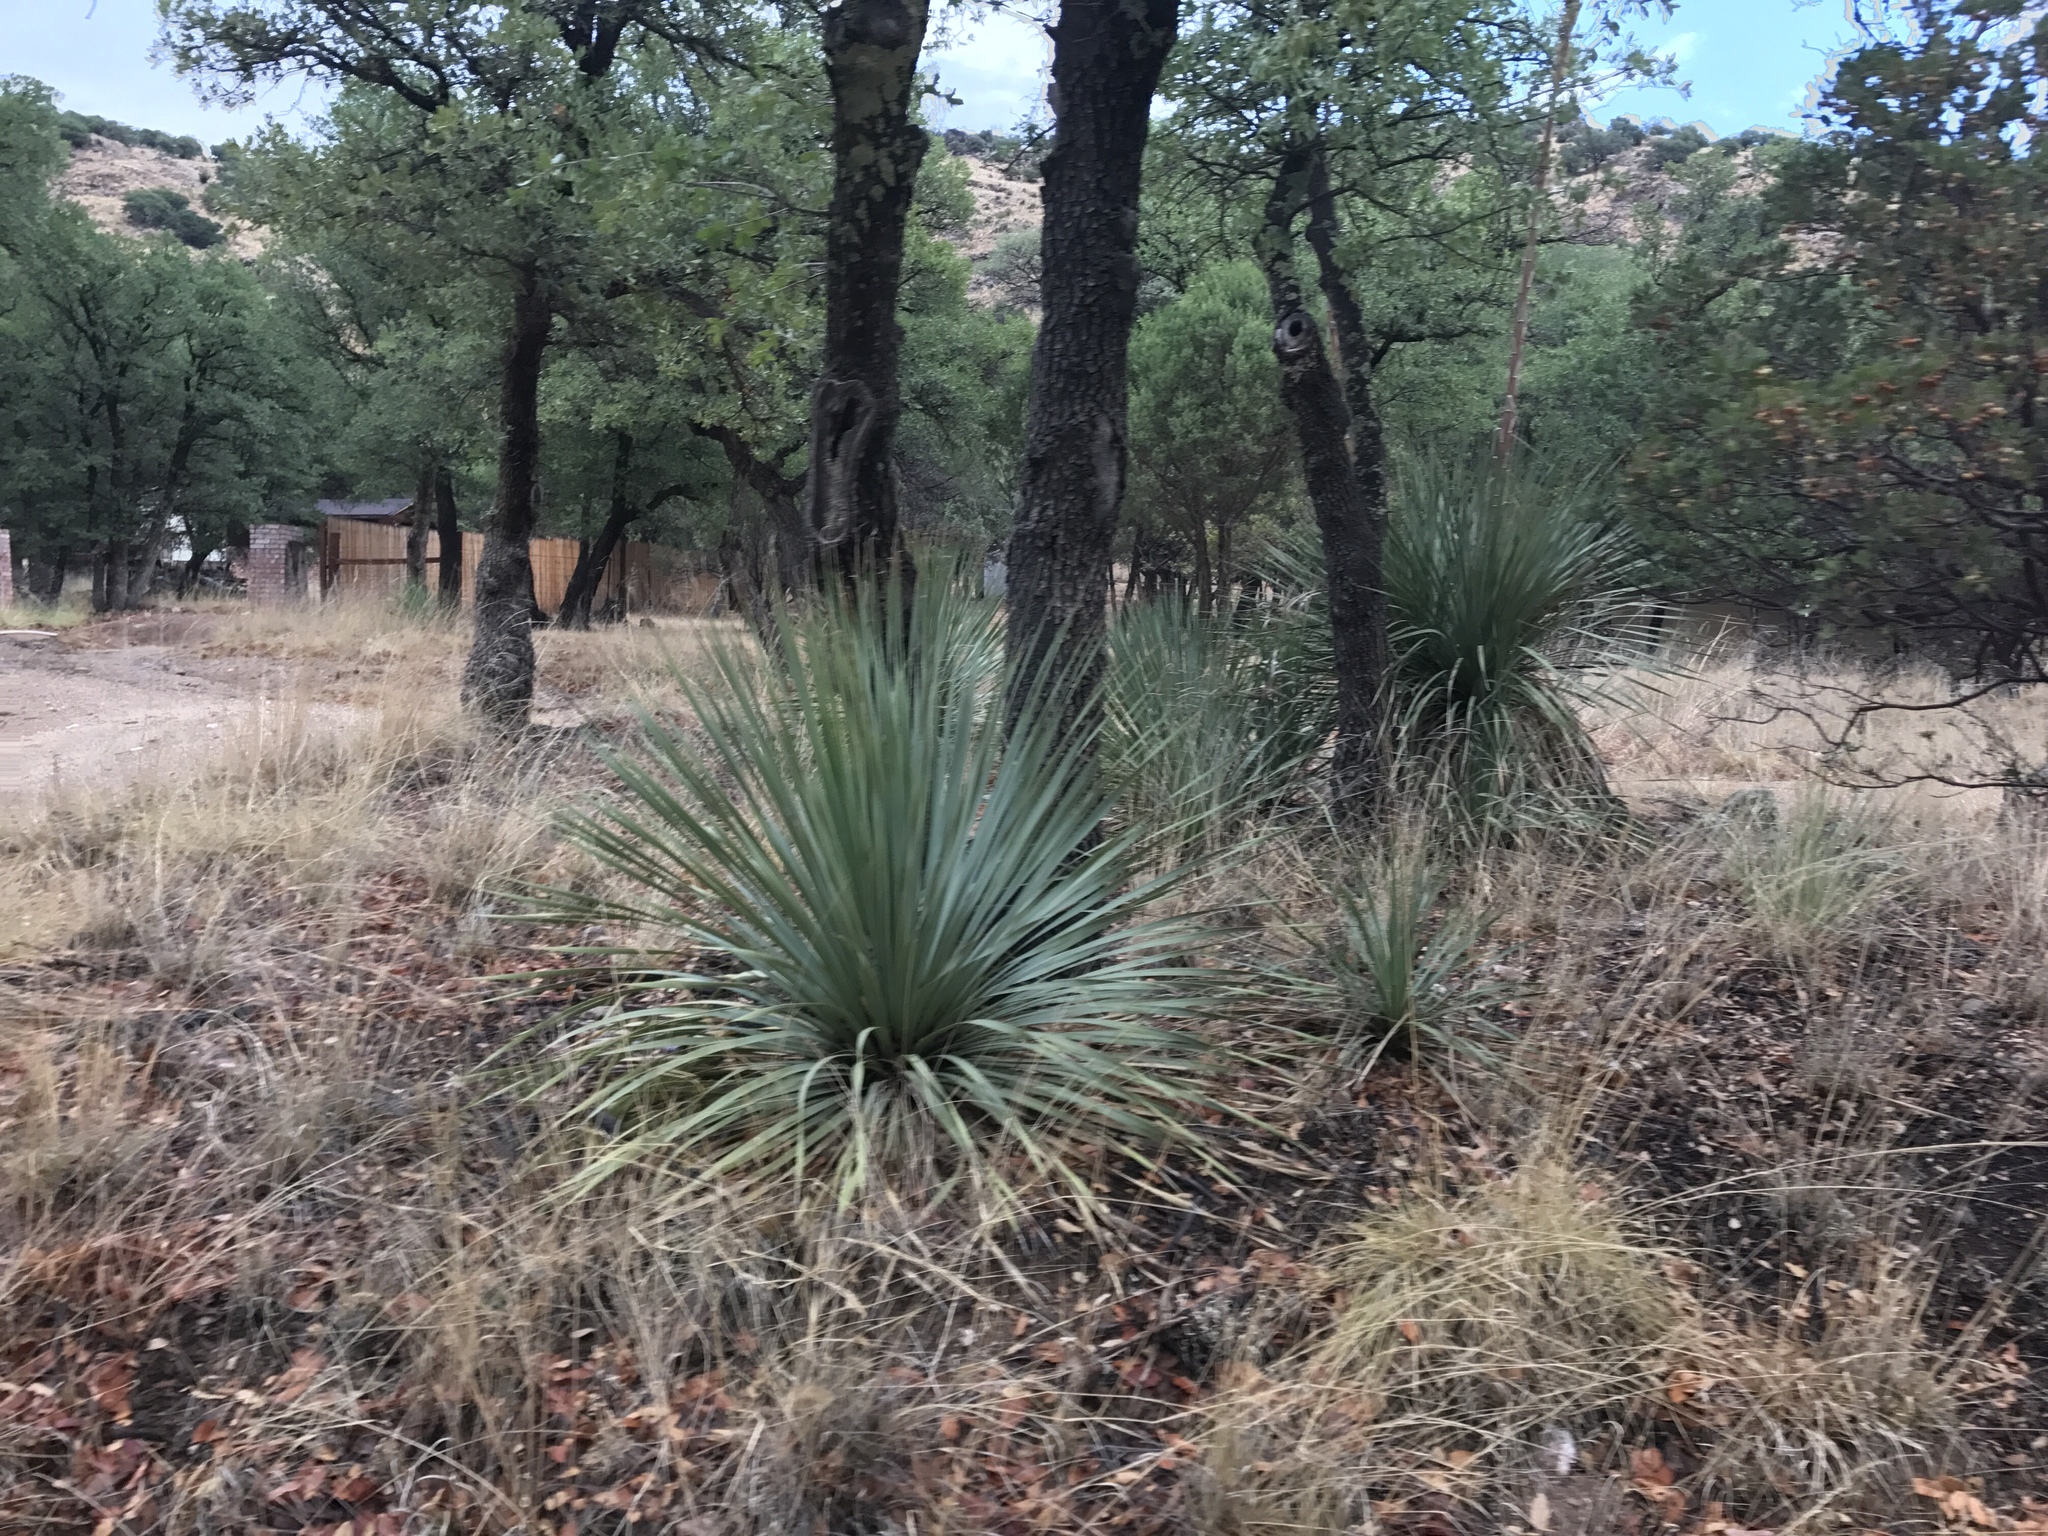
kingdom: Plantae
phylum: Tracheophyta
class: Liliopsida
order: Asparagales
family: Asparagaceae
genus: Dasylirion
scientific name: Dasylirion wheeleri
